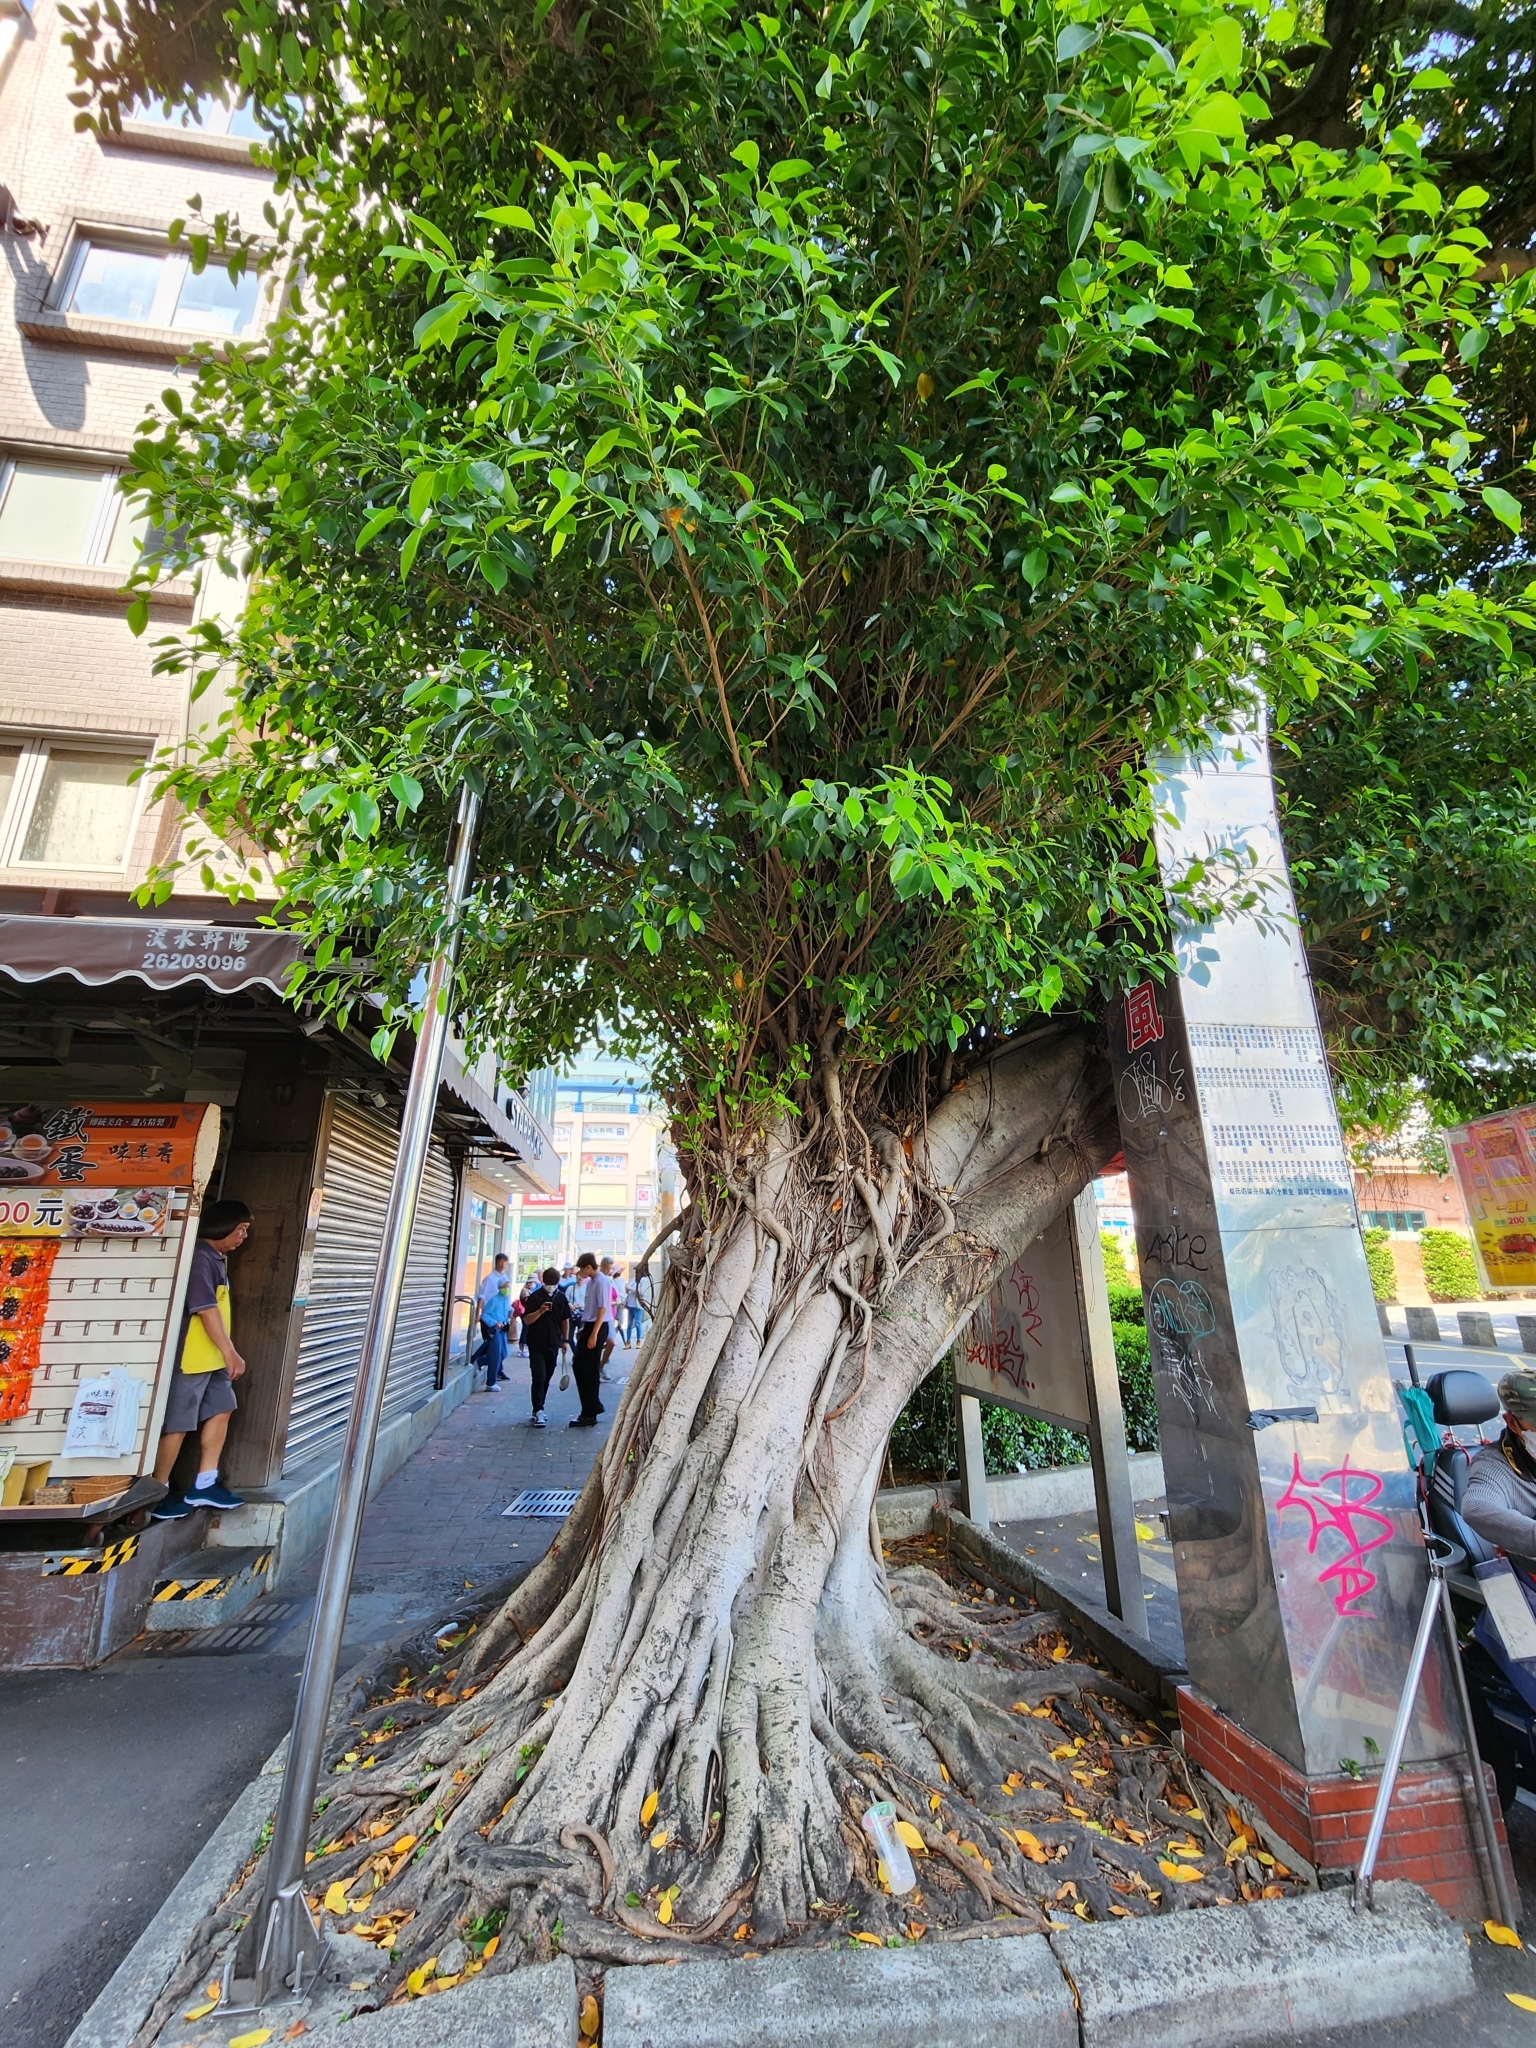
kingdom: Plantae
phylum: Tracheophyta
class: Magnoliopsida
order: Rosales
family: Moraceae
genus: Ficus
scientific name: Ficus microcarpa
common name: Chinese banyan
